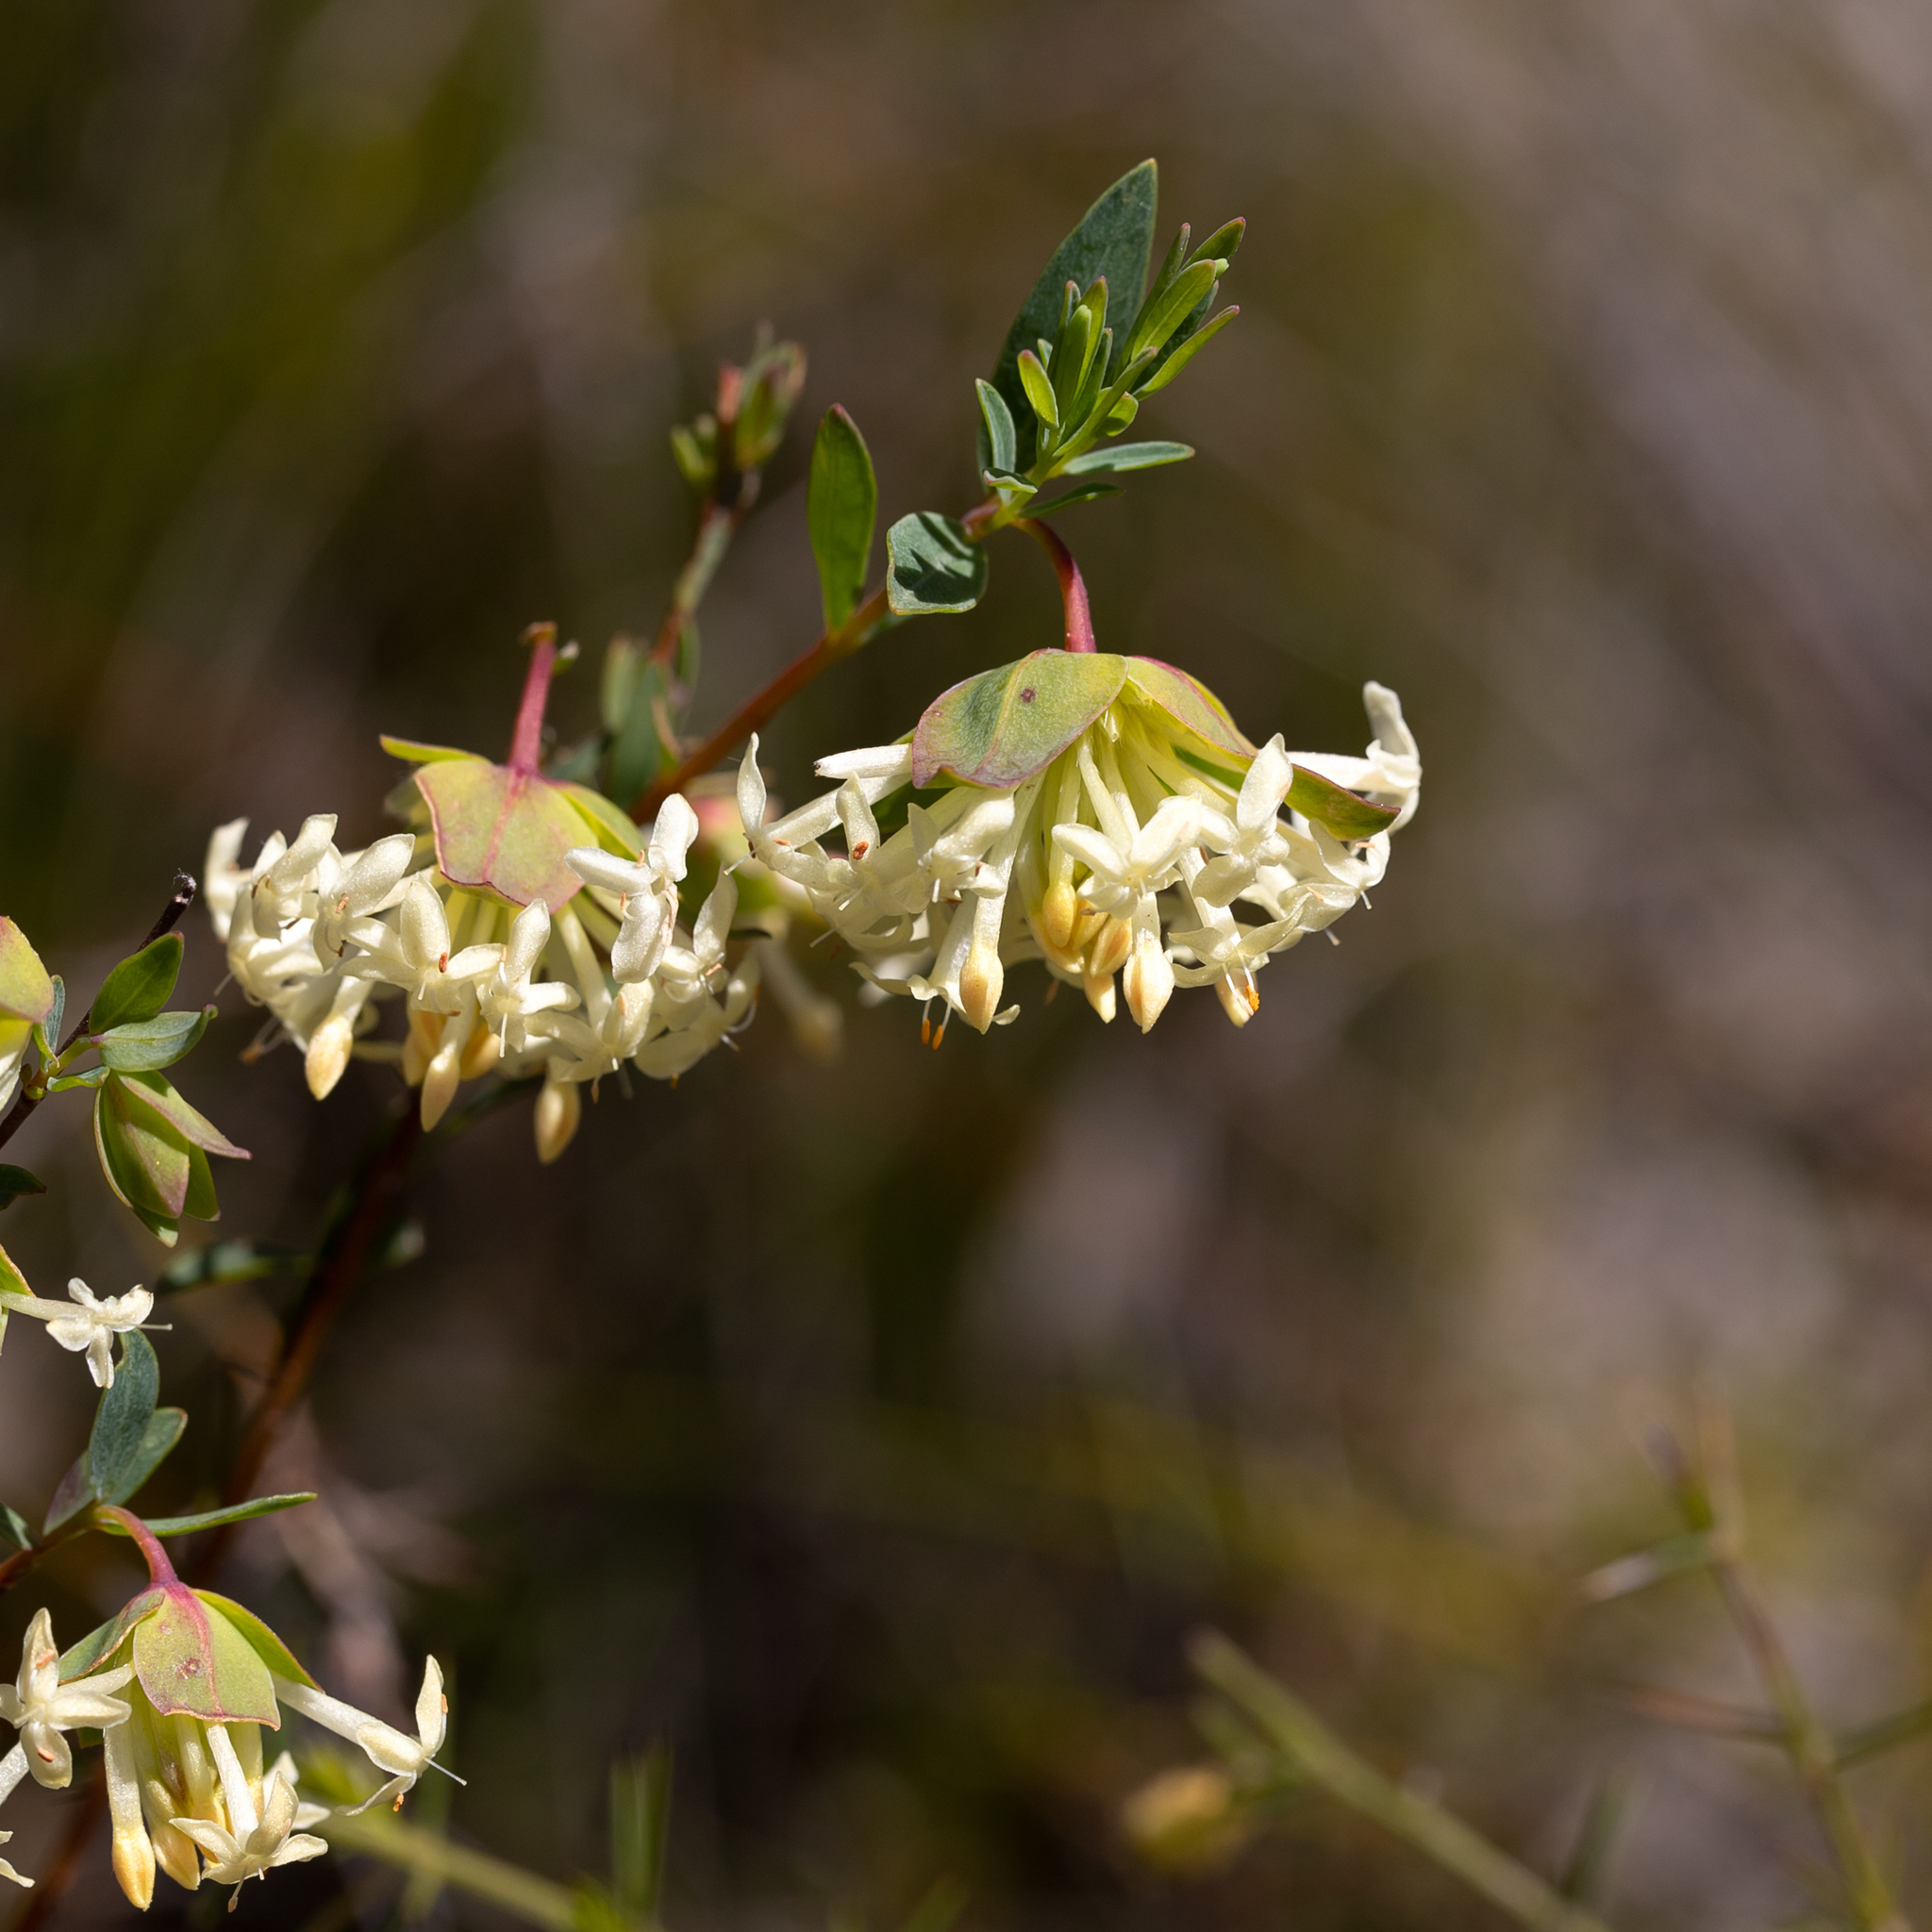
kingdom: Plantae
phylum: Tracheophyta
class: Magnoliopsida
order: Malvales
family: Thymelaeaceae
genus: Pimelea
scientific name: Pimelea linifolia
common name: Queen-of-the-bush
